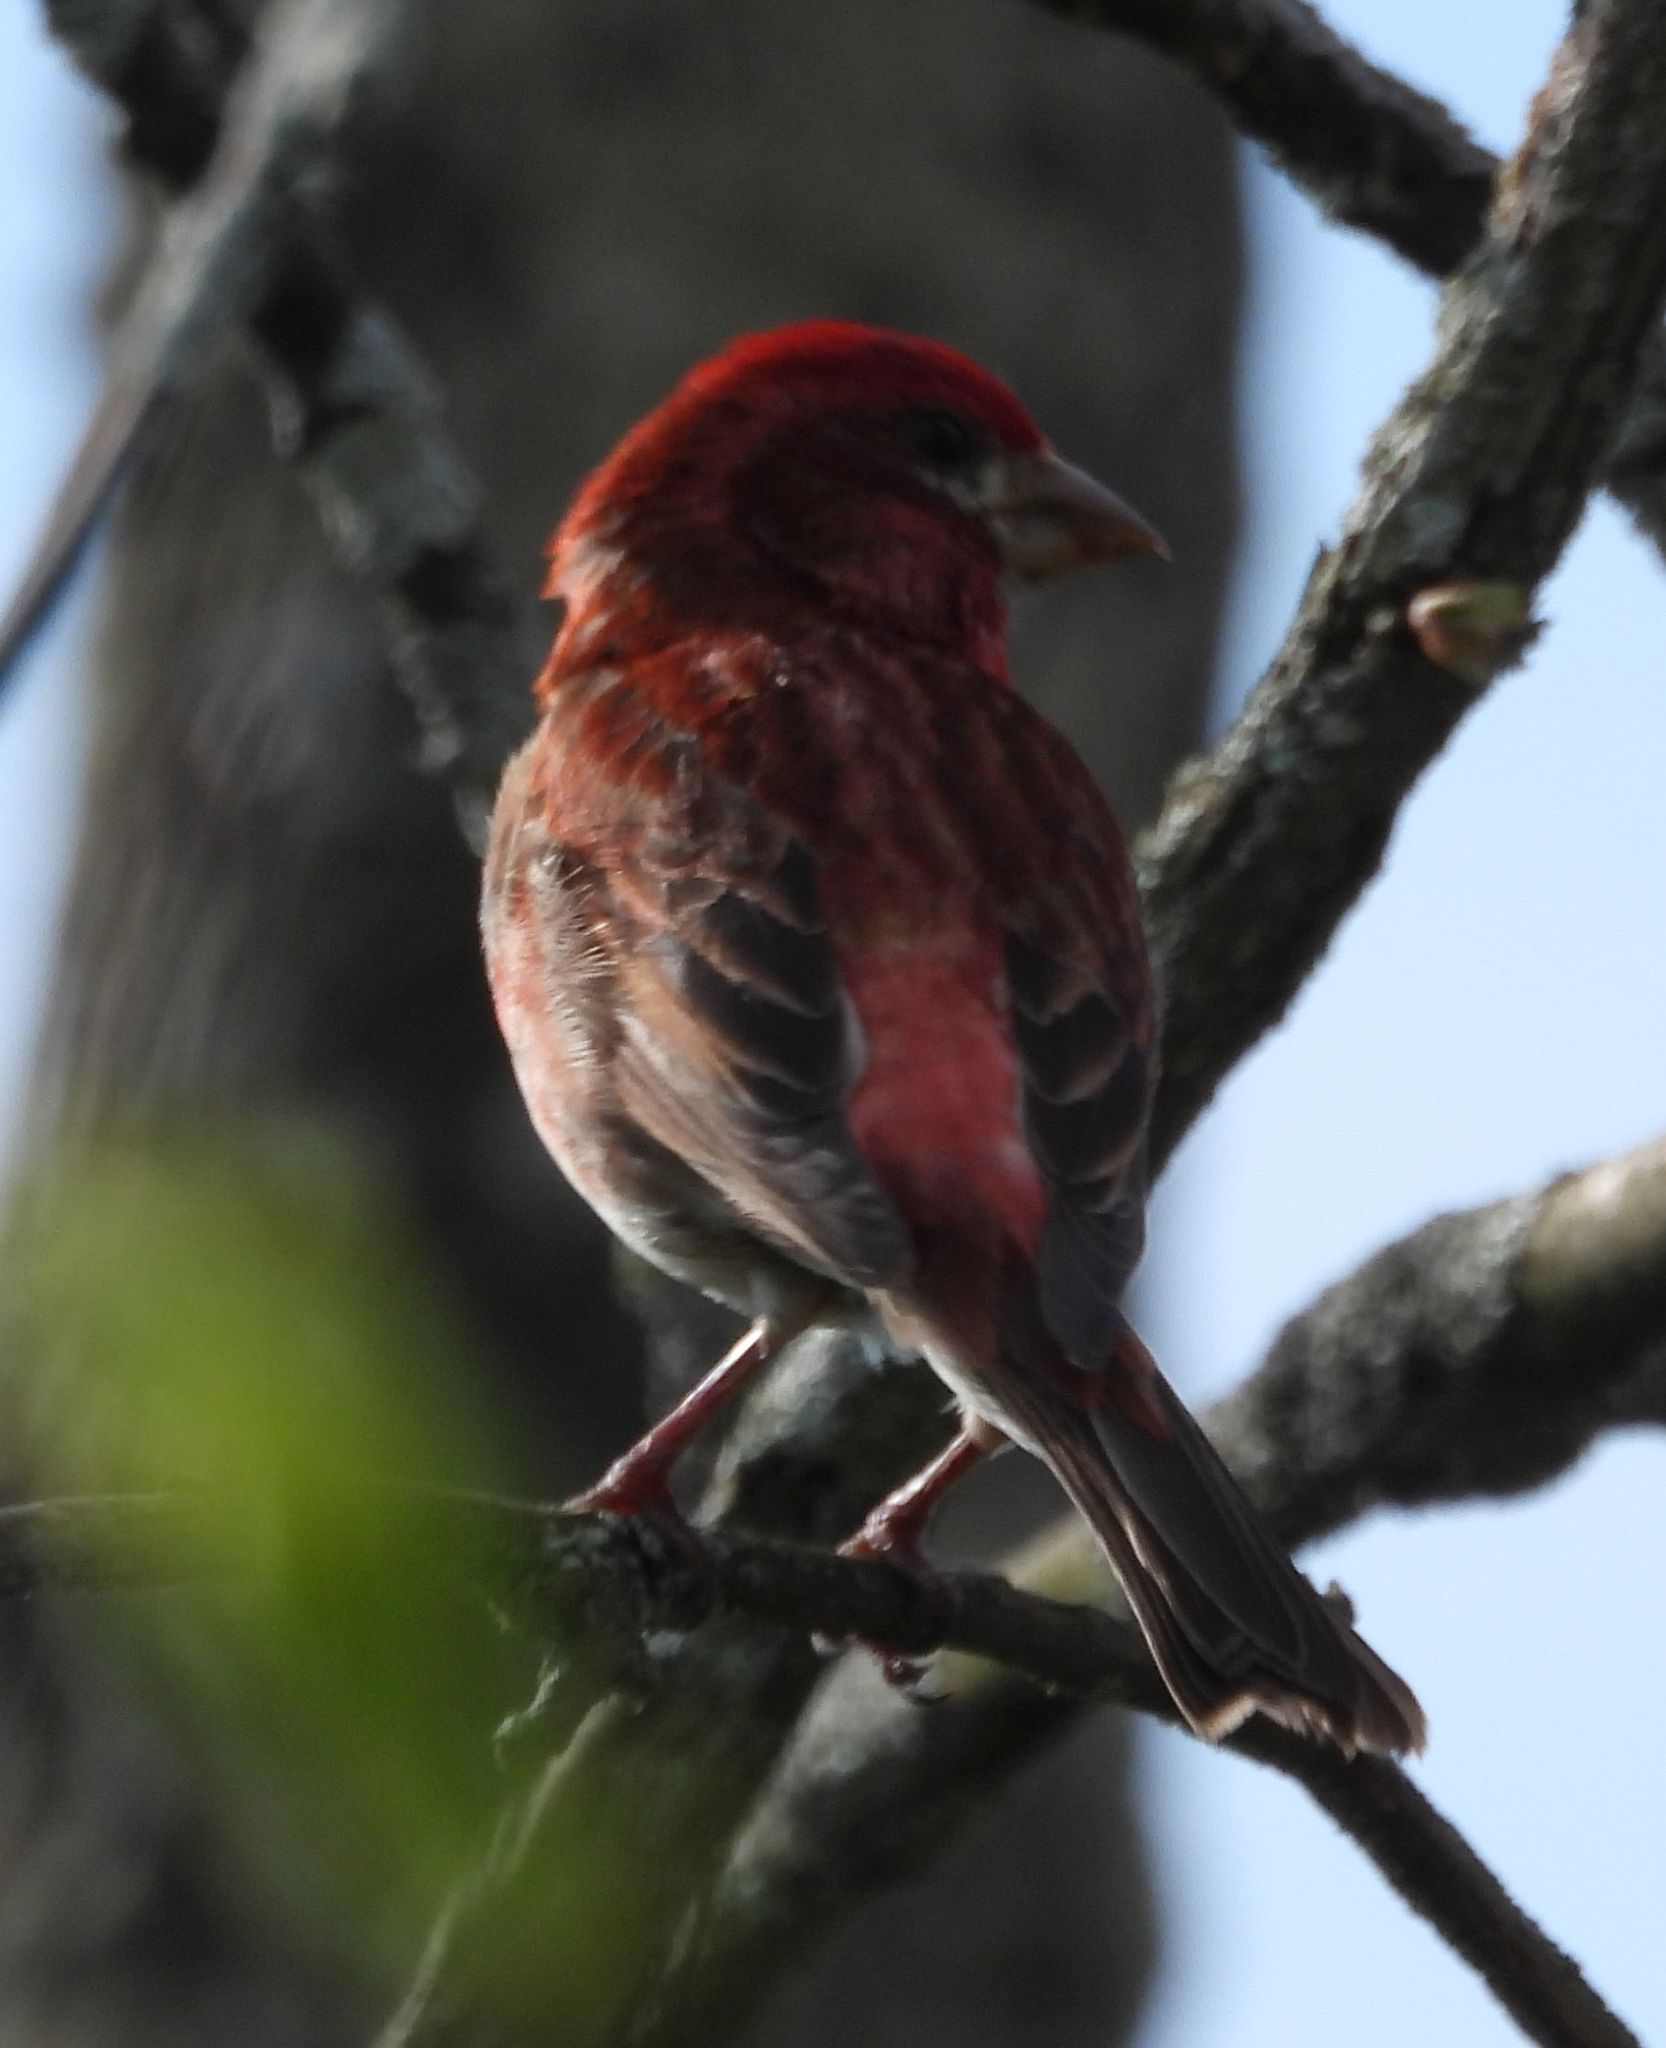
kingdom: Animalia
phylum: Chordata
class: Aves
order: Passeriformes
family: Fringillidae
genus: Haemorhous
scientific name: Haemorhous purpureus
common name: Purple finch
